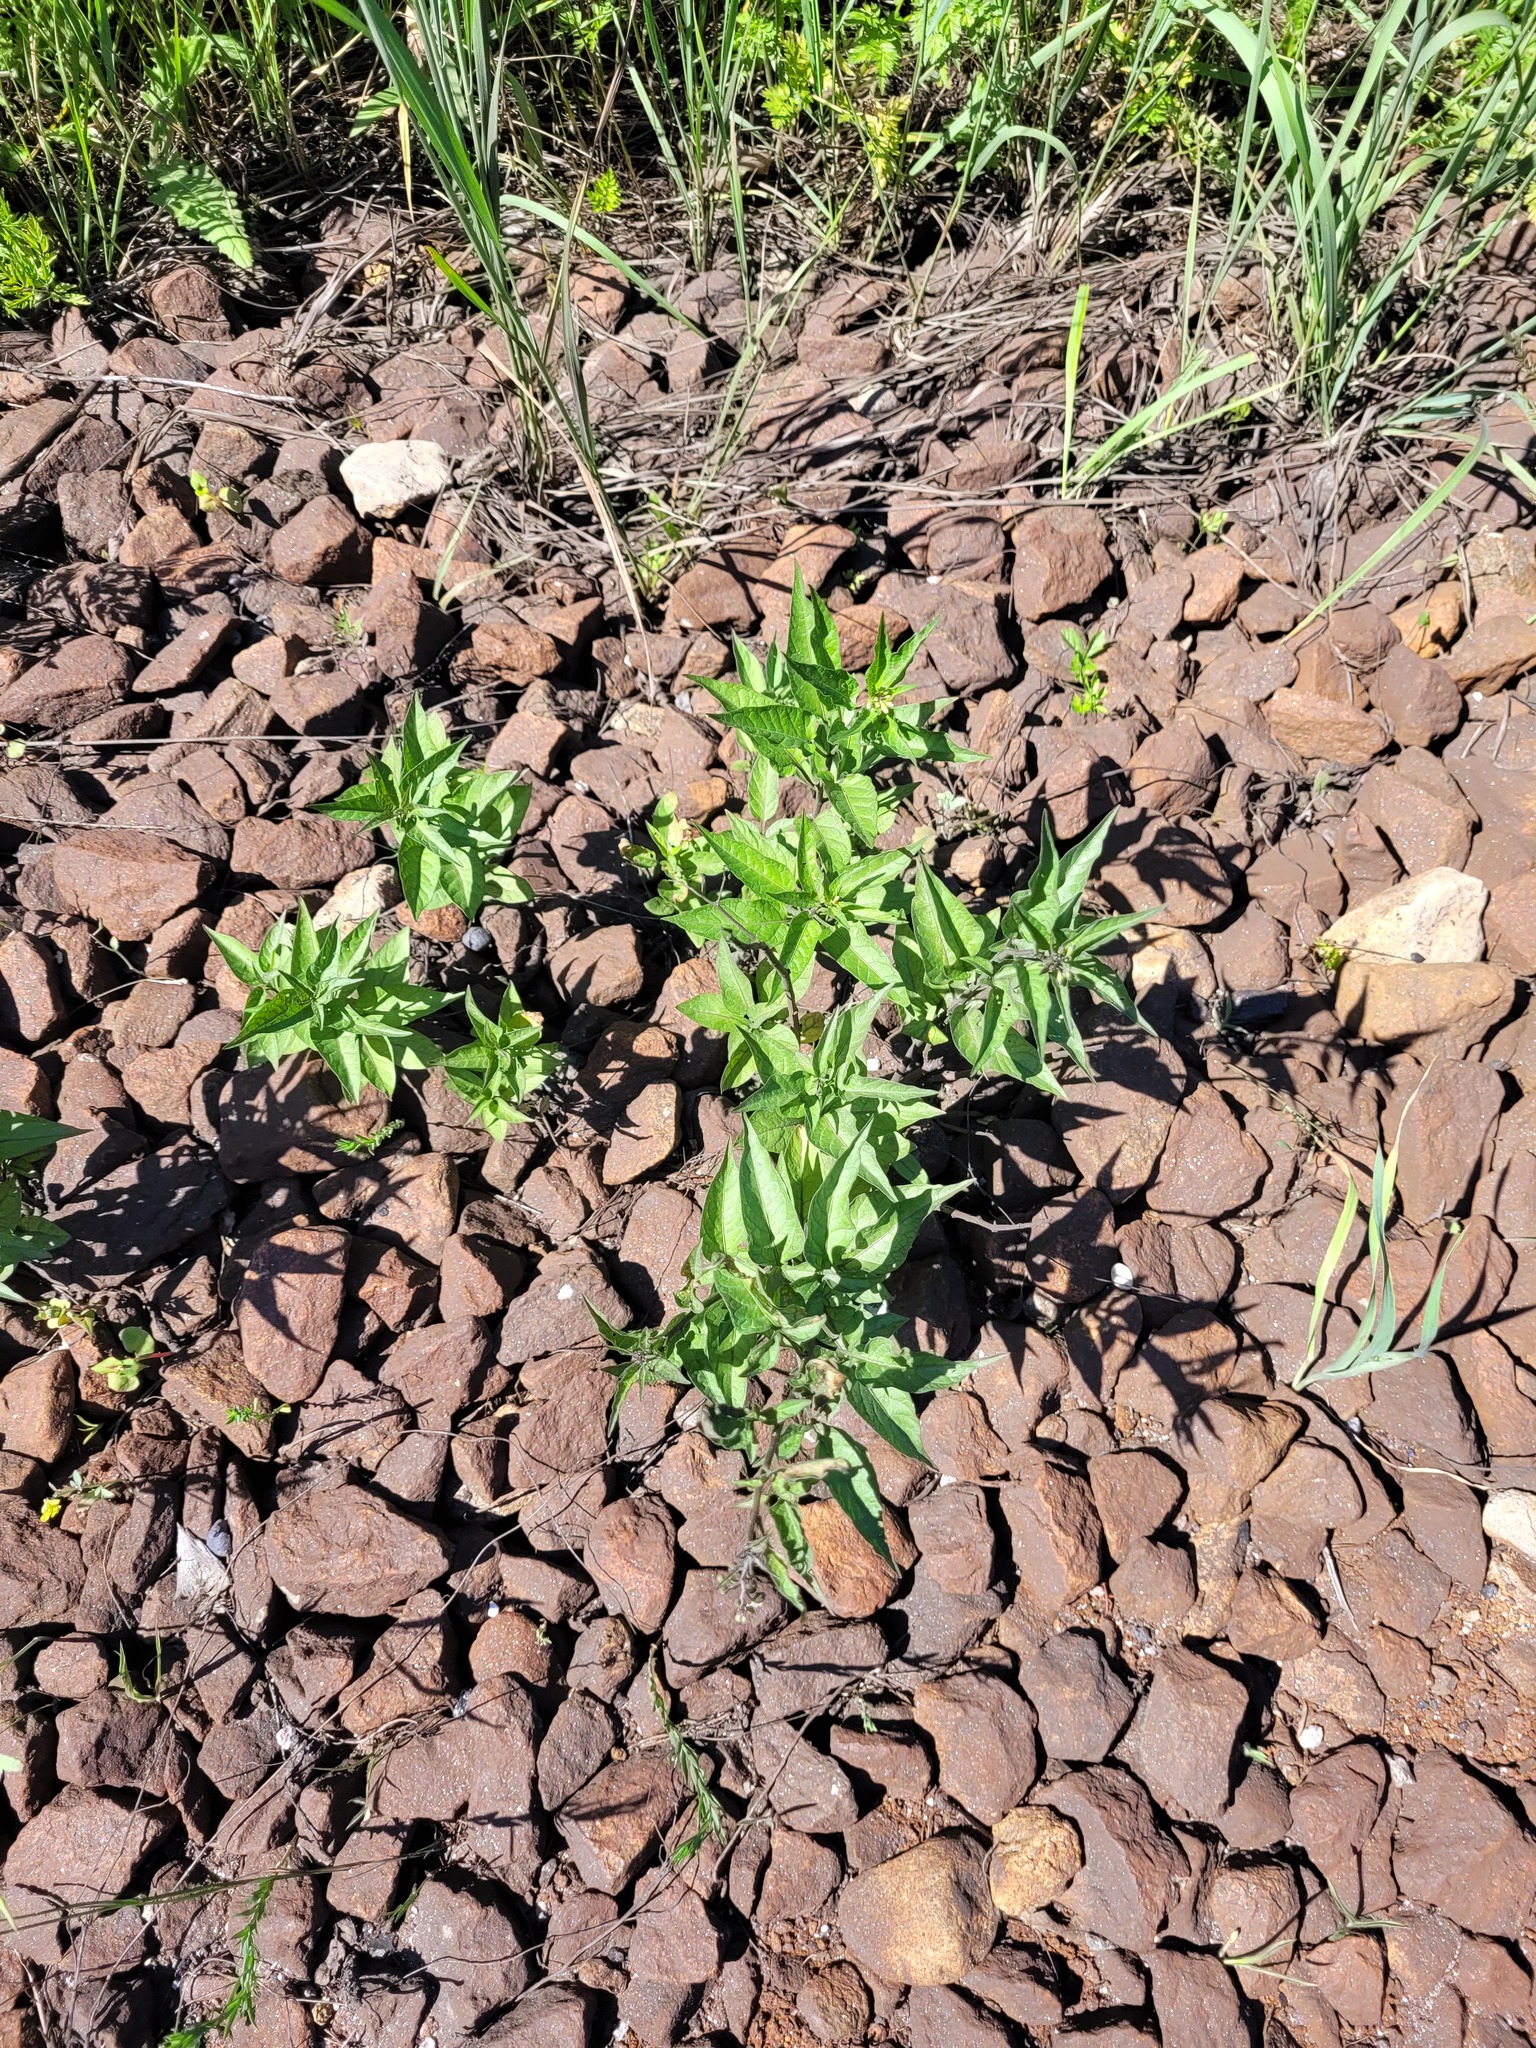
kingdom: Plantae
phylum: Tracheophyta
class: Magnoliopsida
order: Solanales
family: Solanaceae
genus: Solanum
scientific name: Solanum dulcamara
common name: Climbing nightshade
